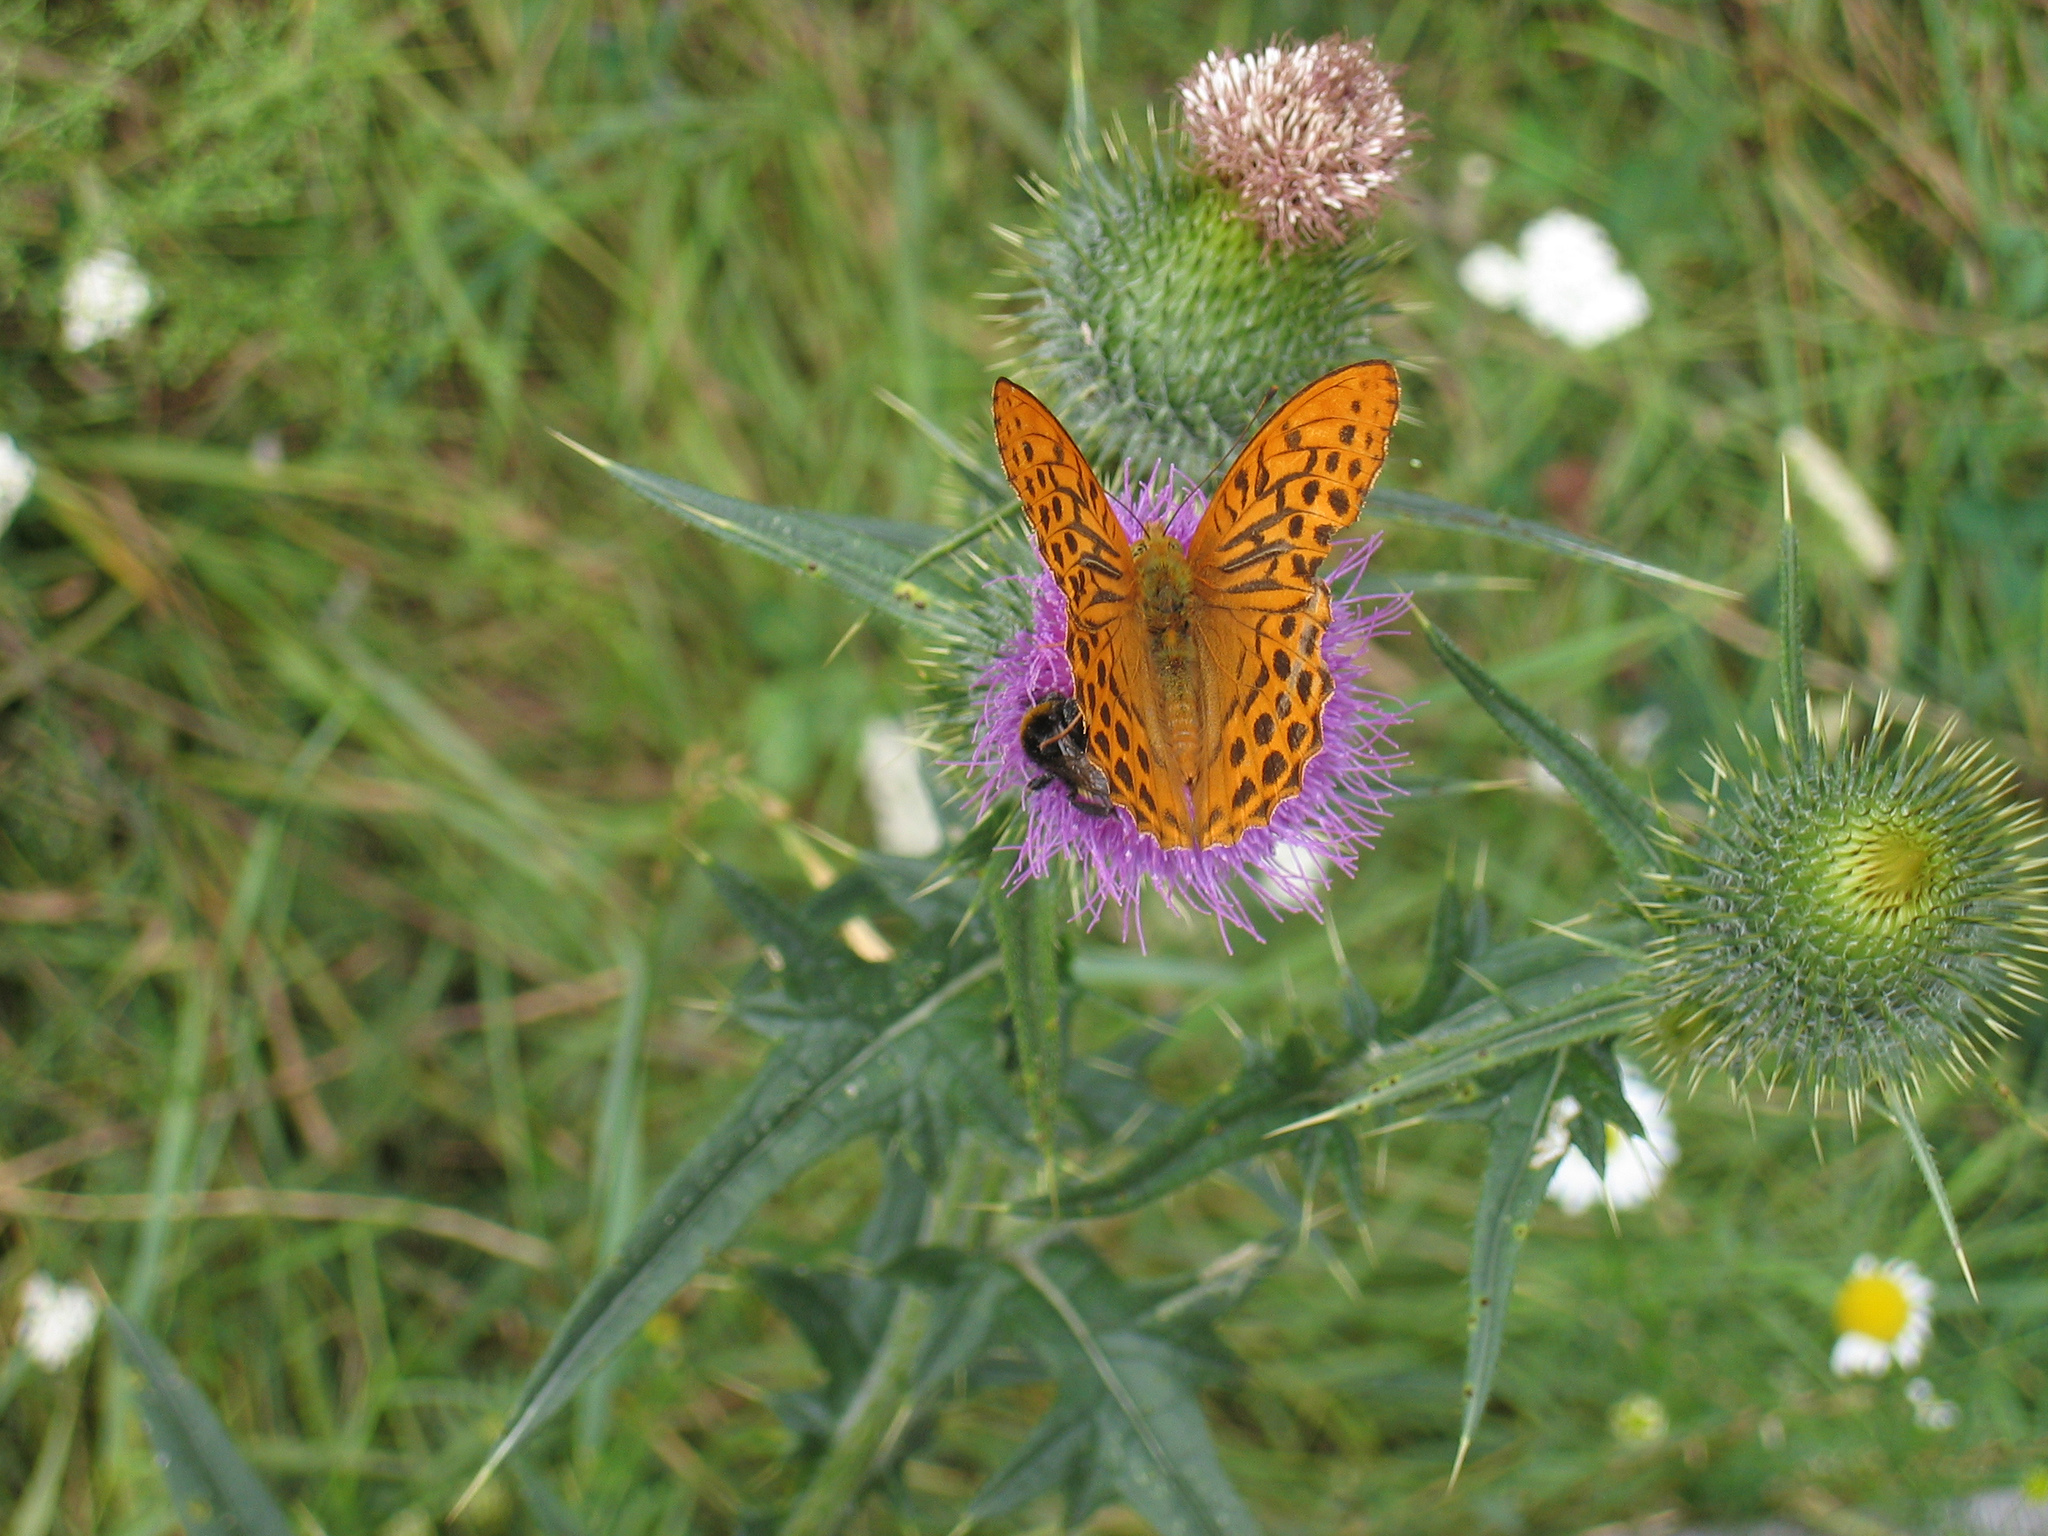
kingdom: Animalia
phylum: Arthropoda
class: Insecta
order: Lepidoptera
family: Nymphalidae
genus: Argynnis
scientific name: Argynnis paphia
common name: Silver-washed fritillary
